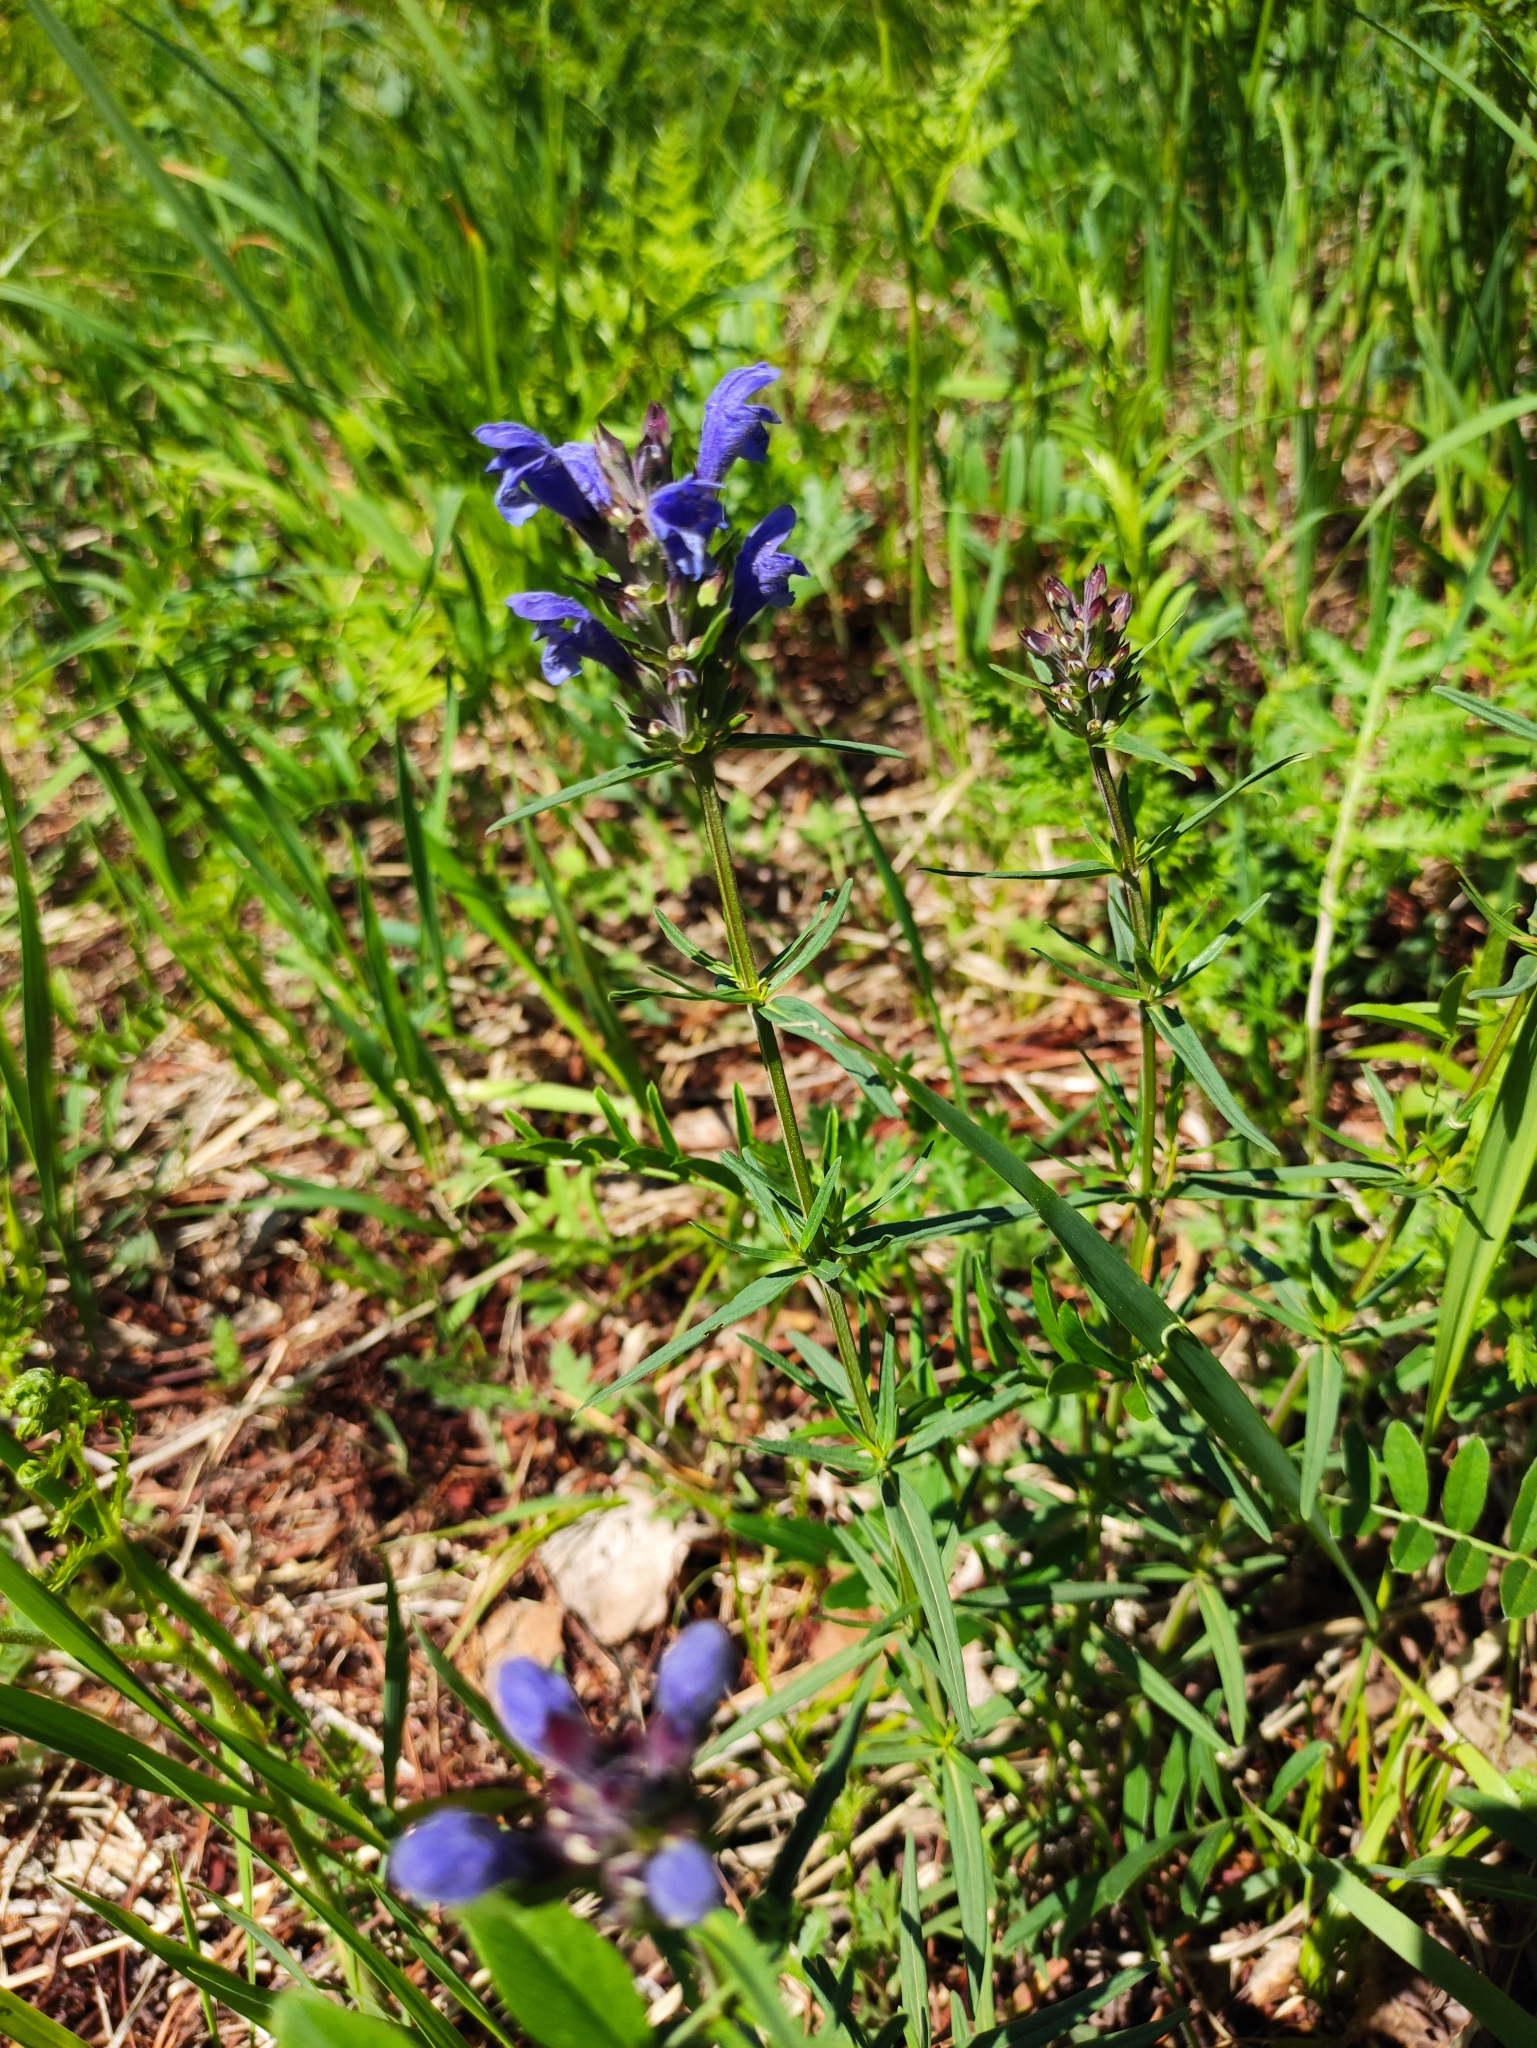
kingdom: Plantae
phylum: Tracheophyta
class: Magnoliopsida
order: Lamiales
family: Lamiaceae
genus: Dracocephalum
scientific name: Dracocephalum ruyschiana
